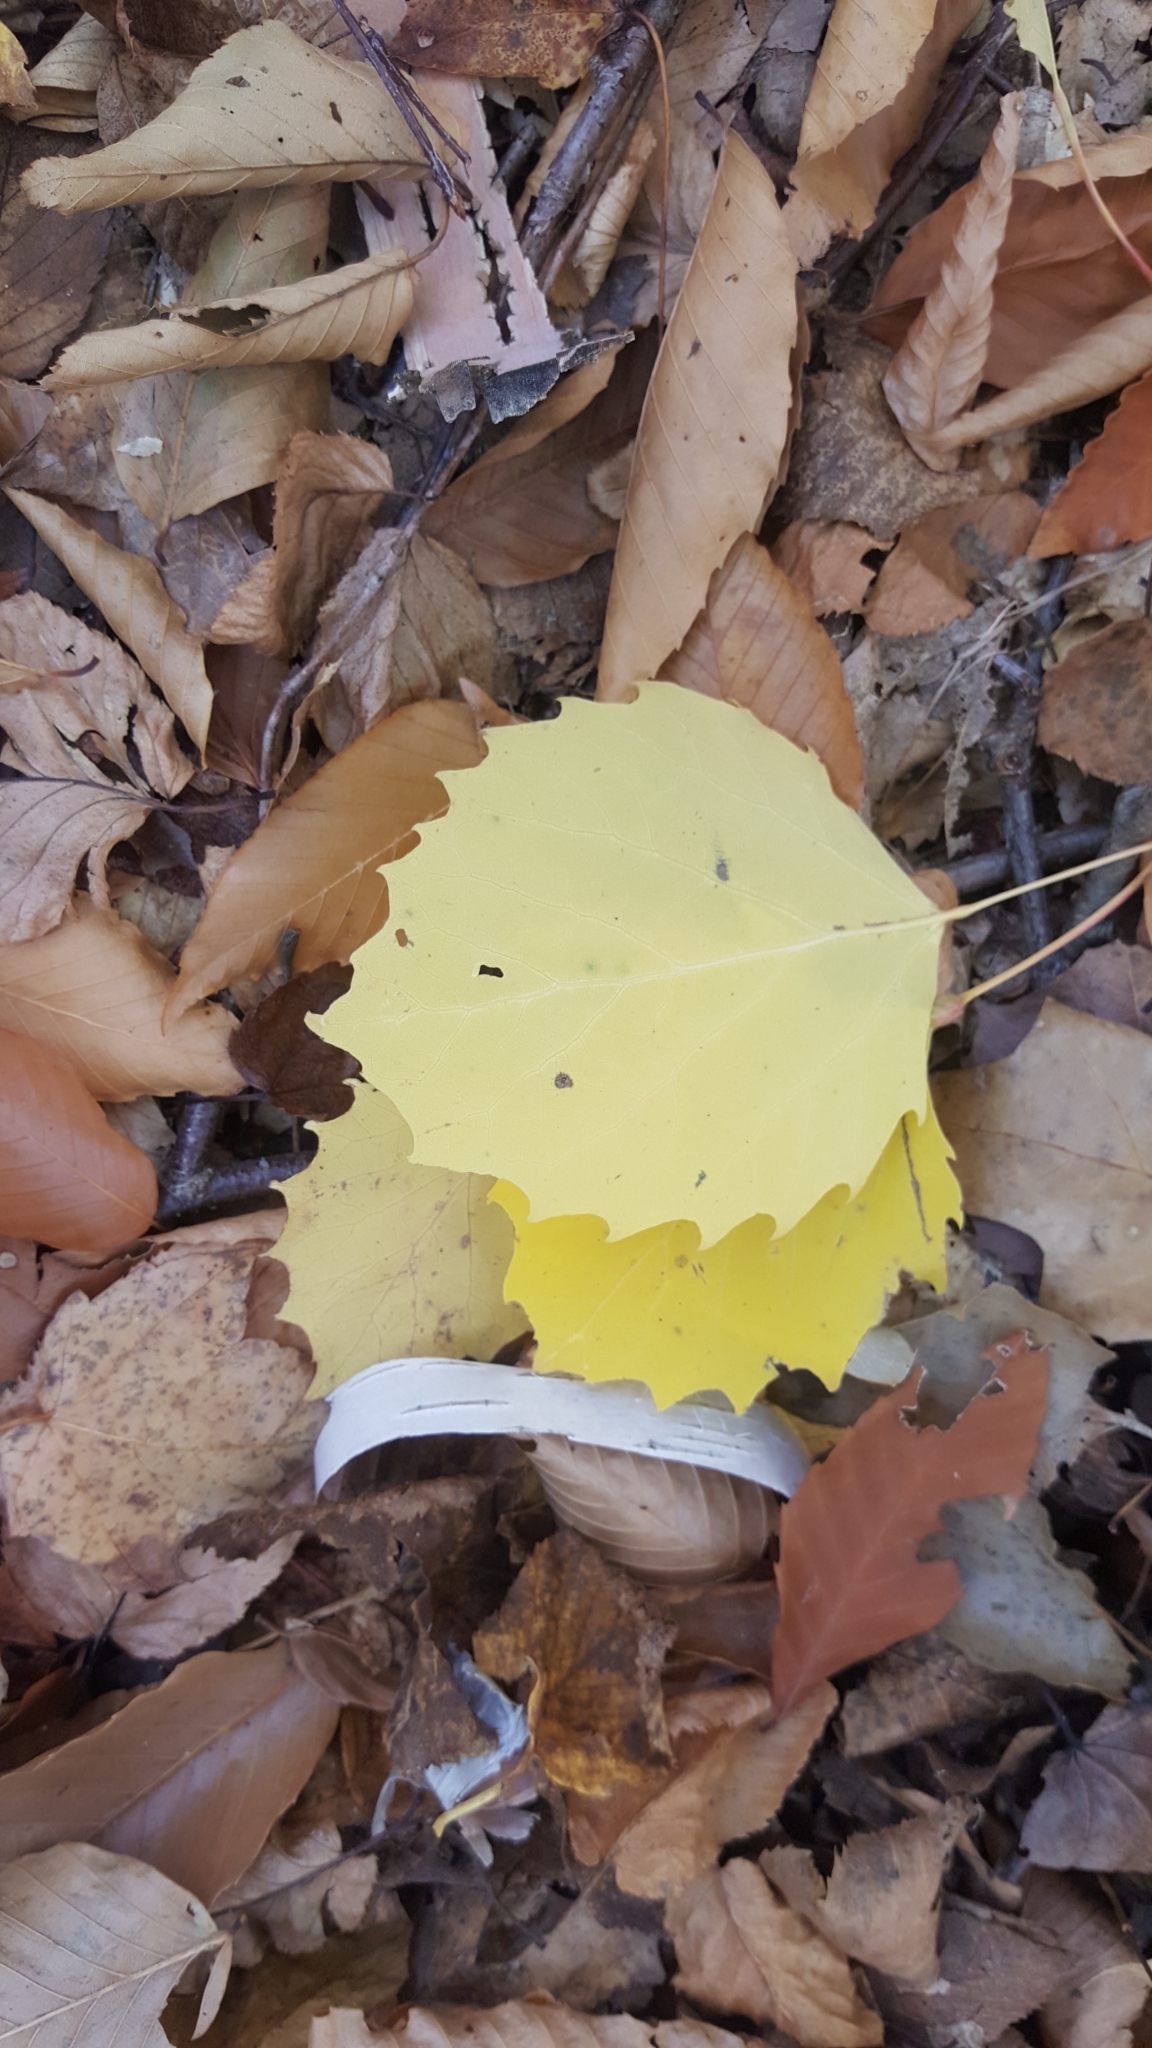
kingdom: Plantae
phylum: Tracheophyta
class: Magnoliopsida
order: Malpighiales
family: Salicaceae
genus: Populus
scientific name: Populus grandidentata
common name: Bigtooth aspen
